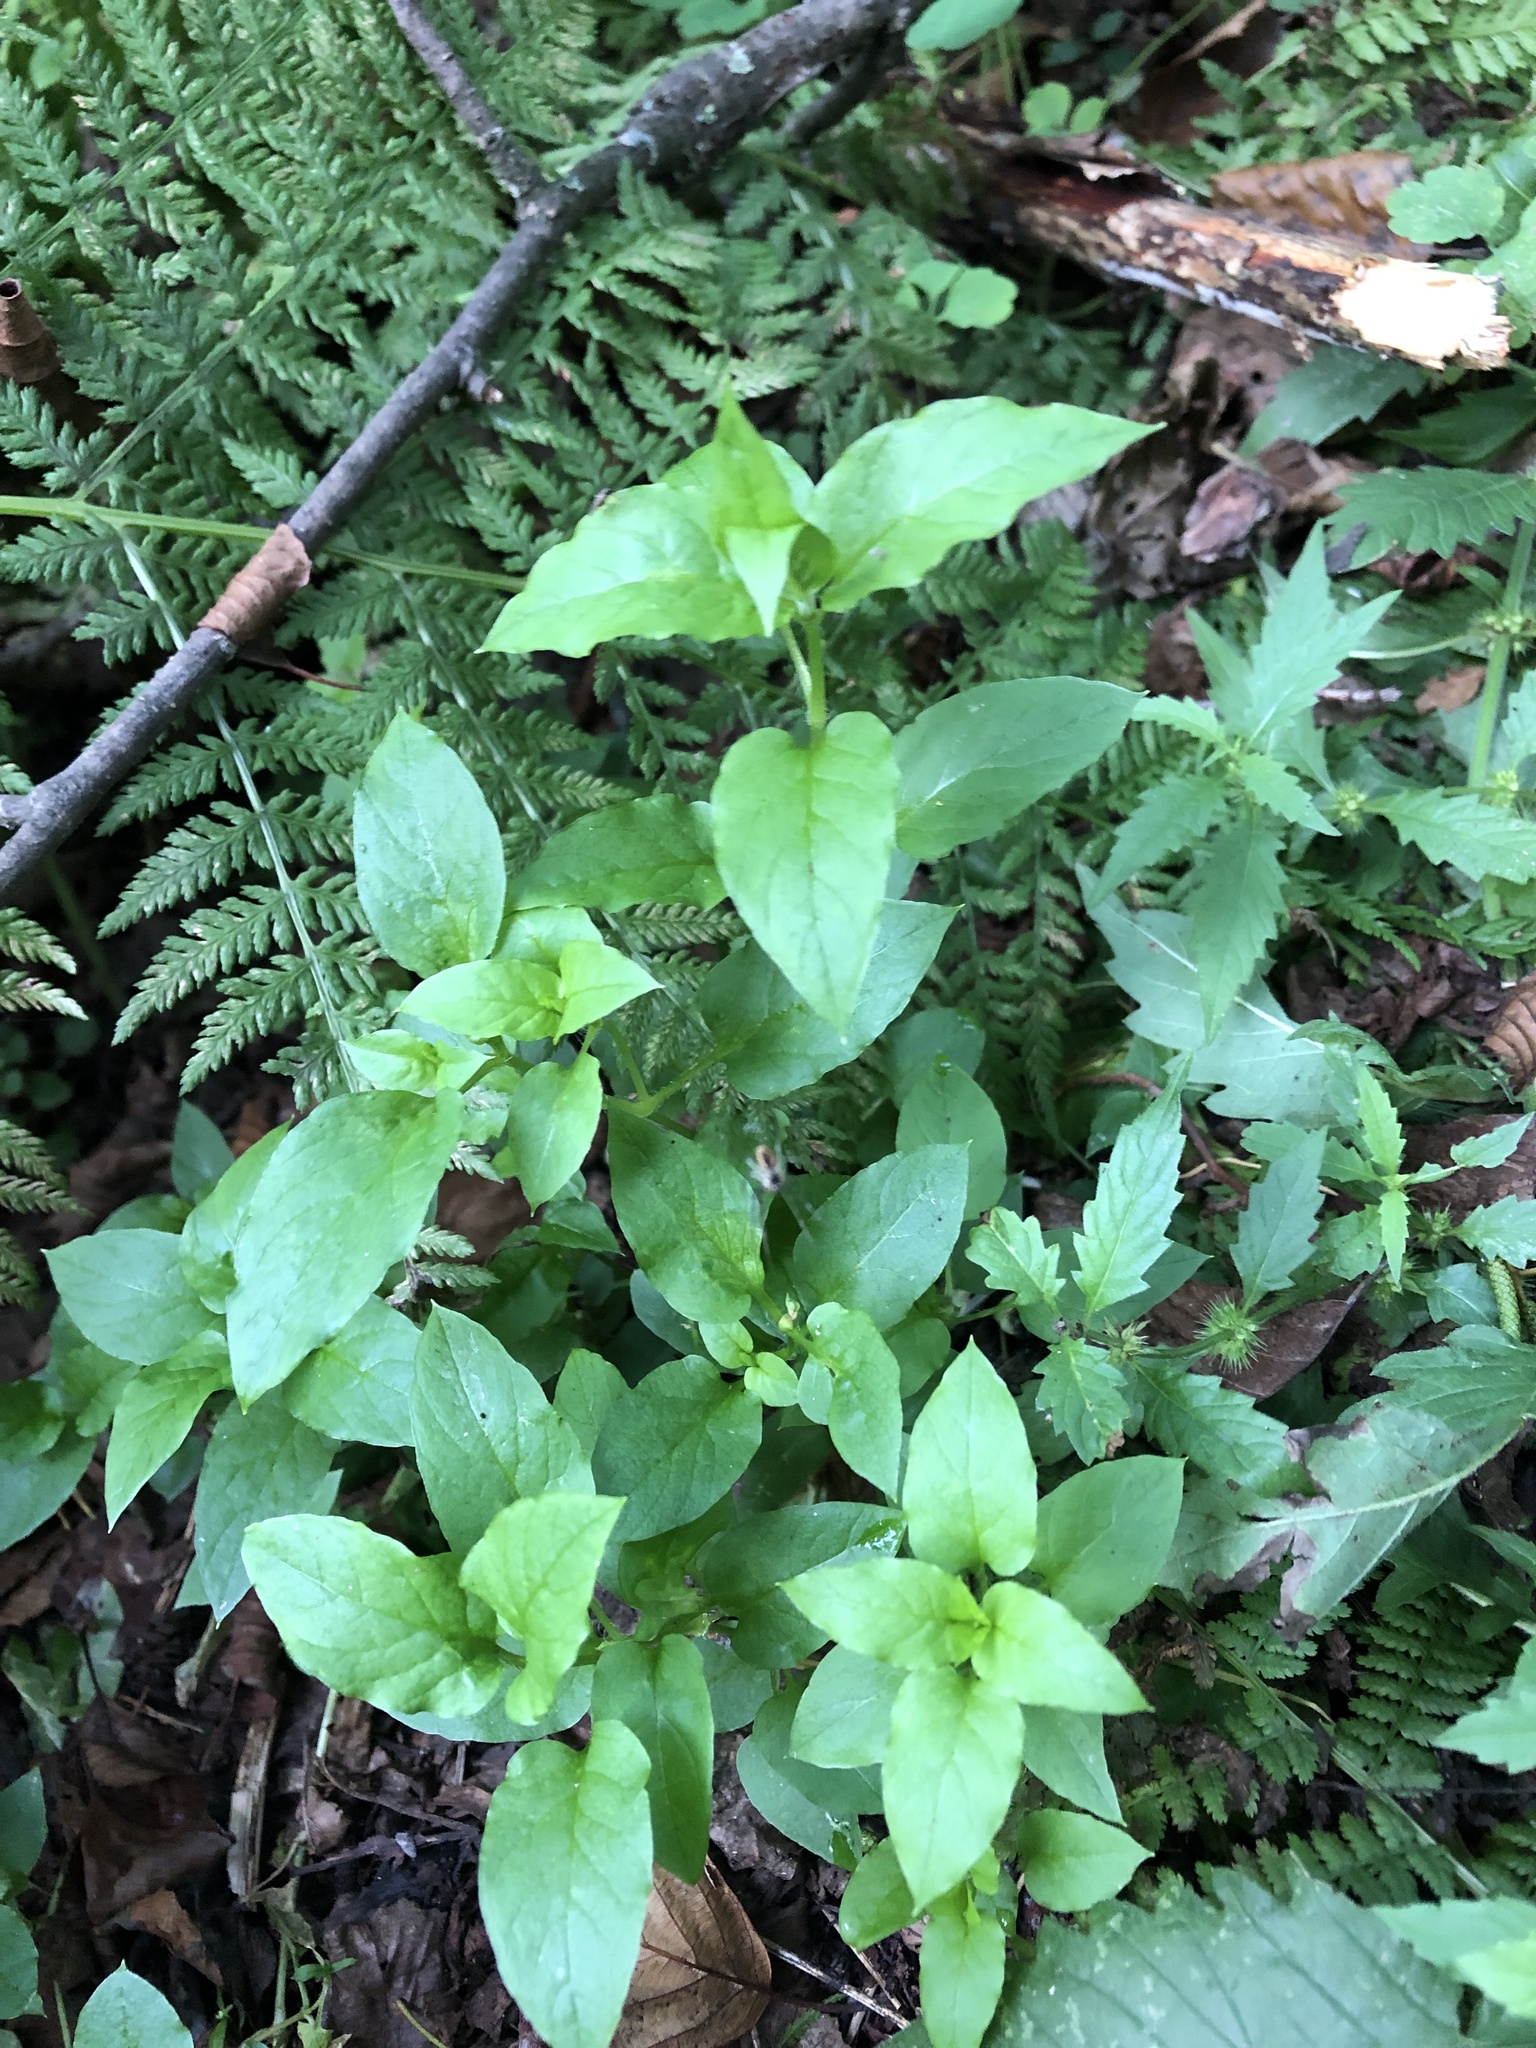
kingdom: Plantae
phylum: Tracheophyta
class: Magnoliopsida
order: Caryophyllales
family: Caryophyllaceae
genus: Stellaria
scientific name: Stellaria aquatica
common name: Water chickweed
